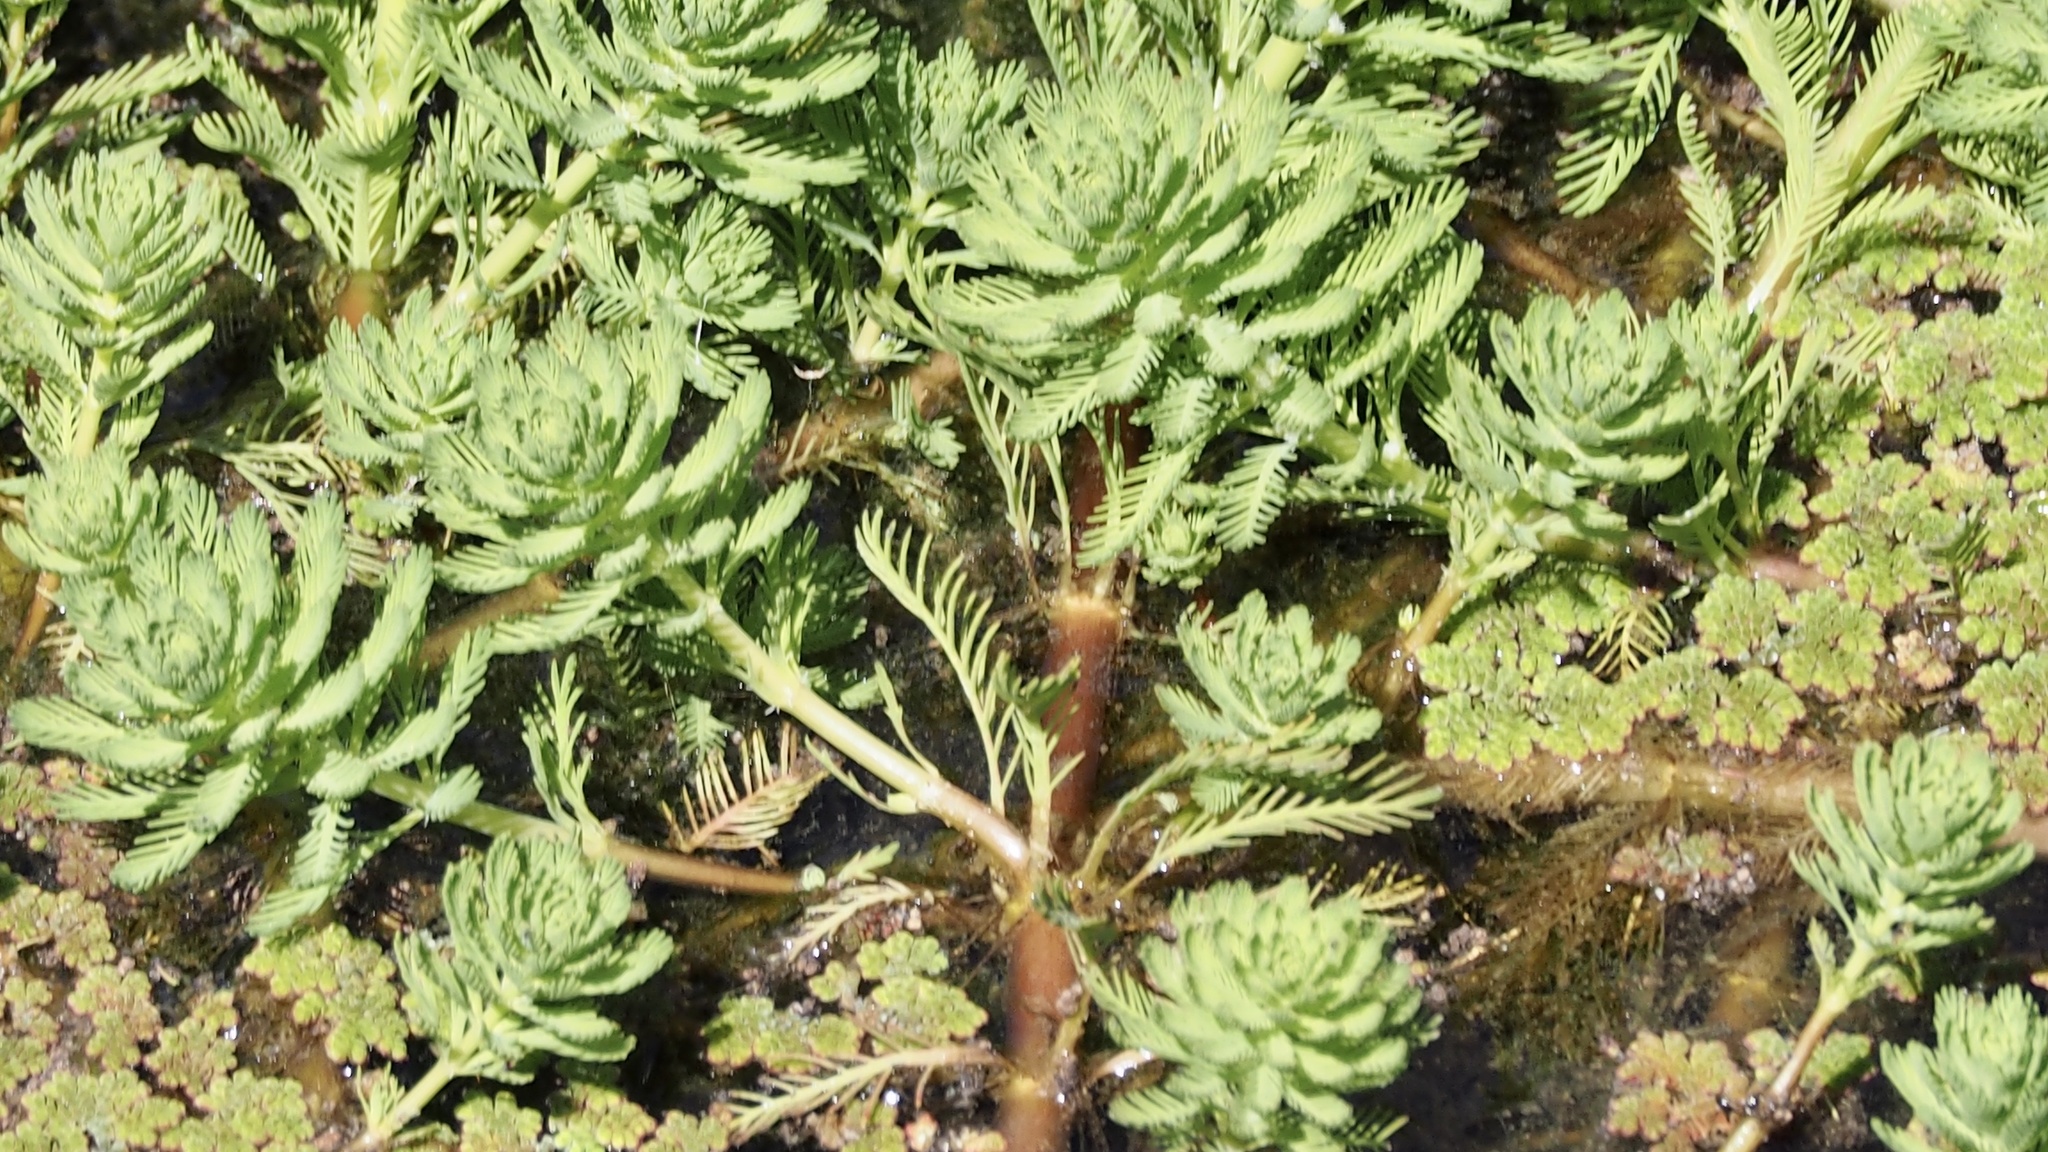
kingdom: Plantae
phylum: Tracheophyta
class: Magnoliopsida
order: Saxifragales
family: Haloragaceae
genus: Myriophyllum
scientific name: Myriophyllum aquaticum
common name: Parrot's feather
